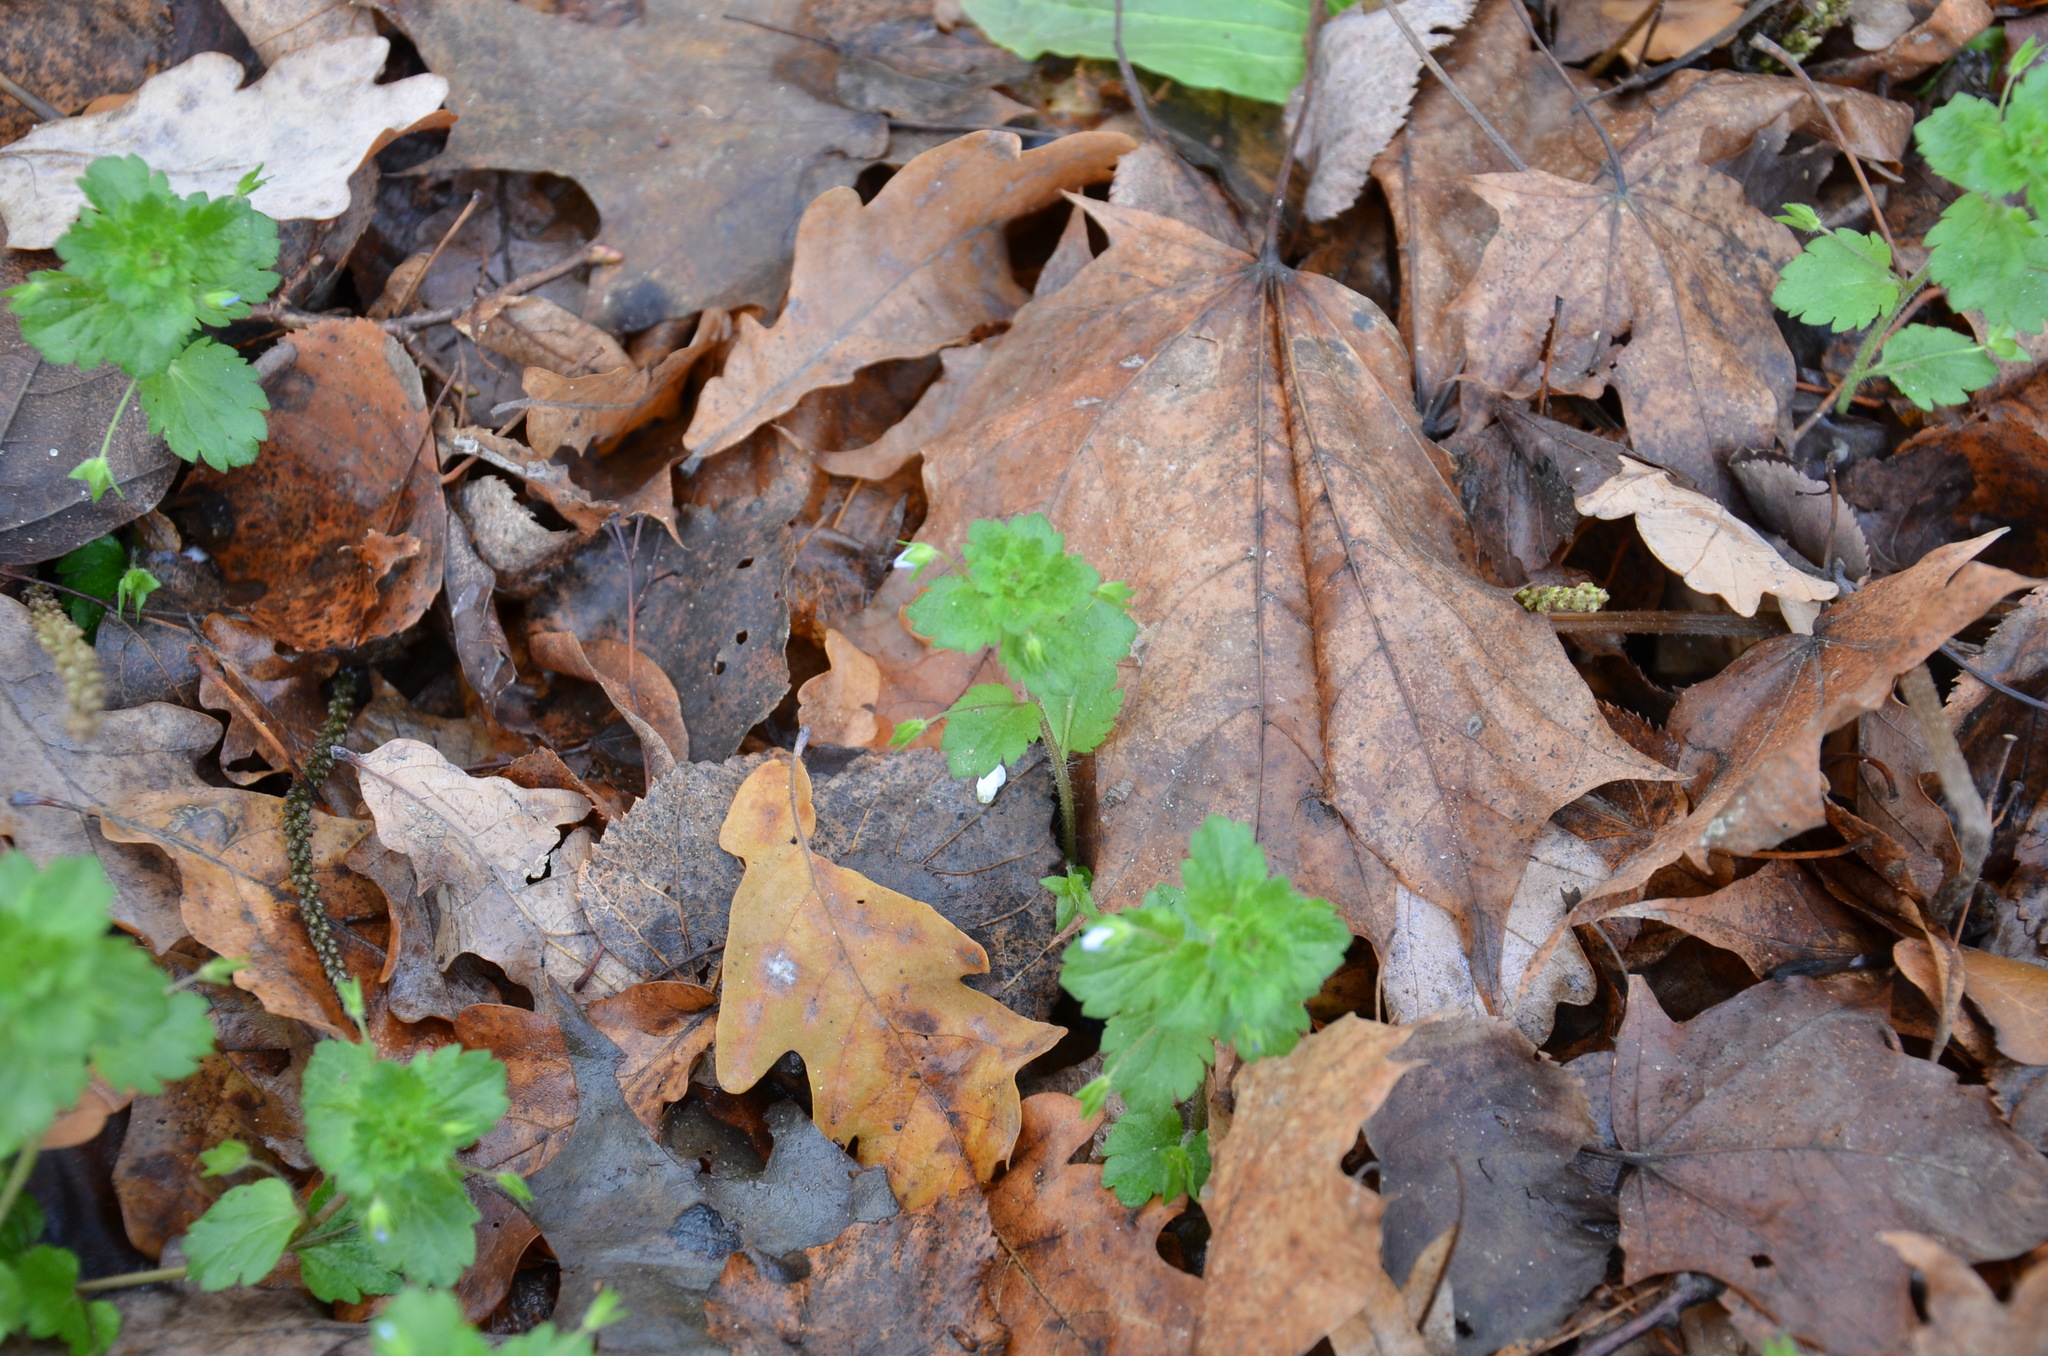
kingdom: Plantae
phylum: Tracheophyta
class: Magnoliopsida
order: Lamiales
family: Plantaginaceae
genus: Veronica
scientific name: Veronica persica
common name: Common field-speedwell
